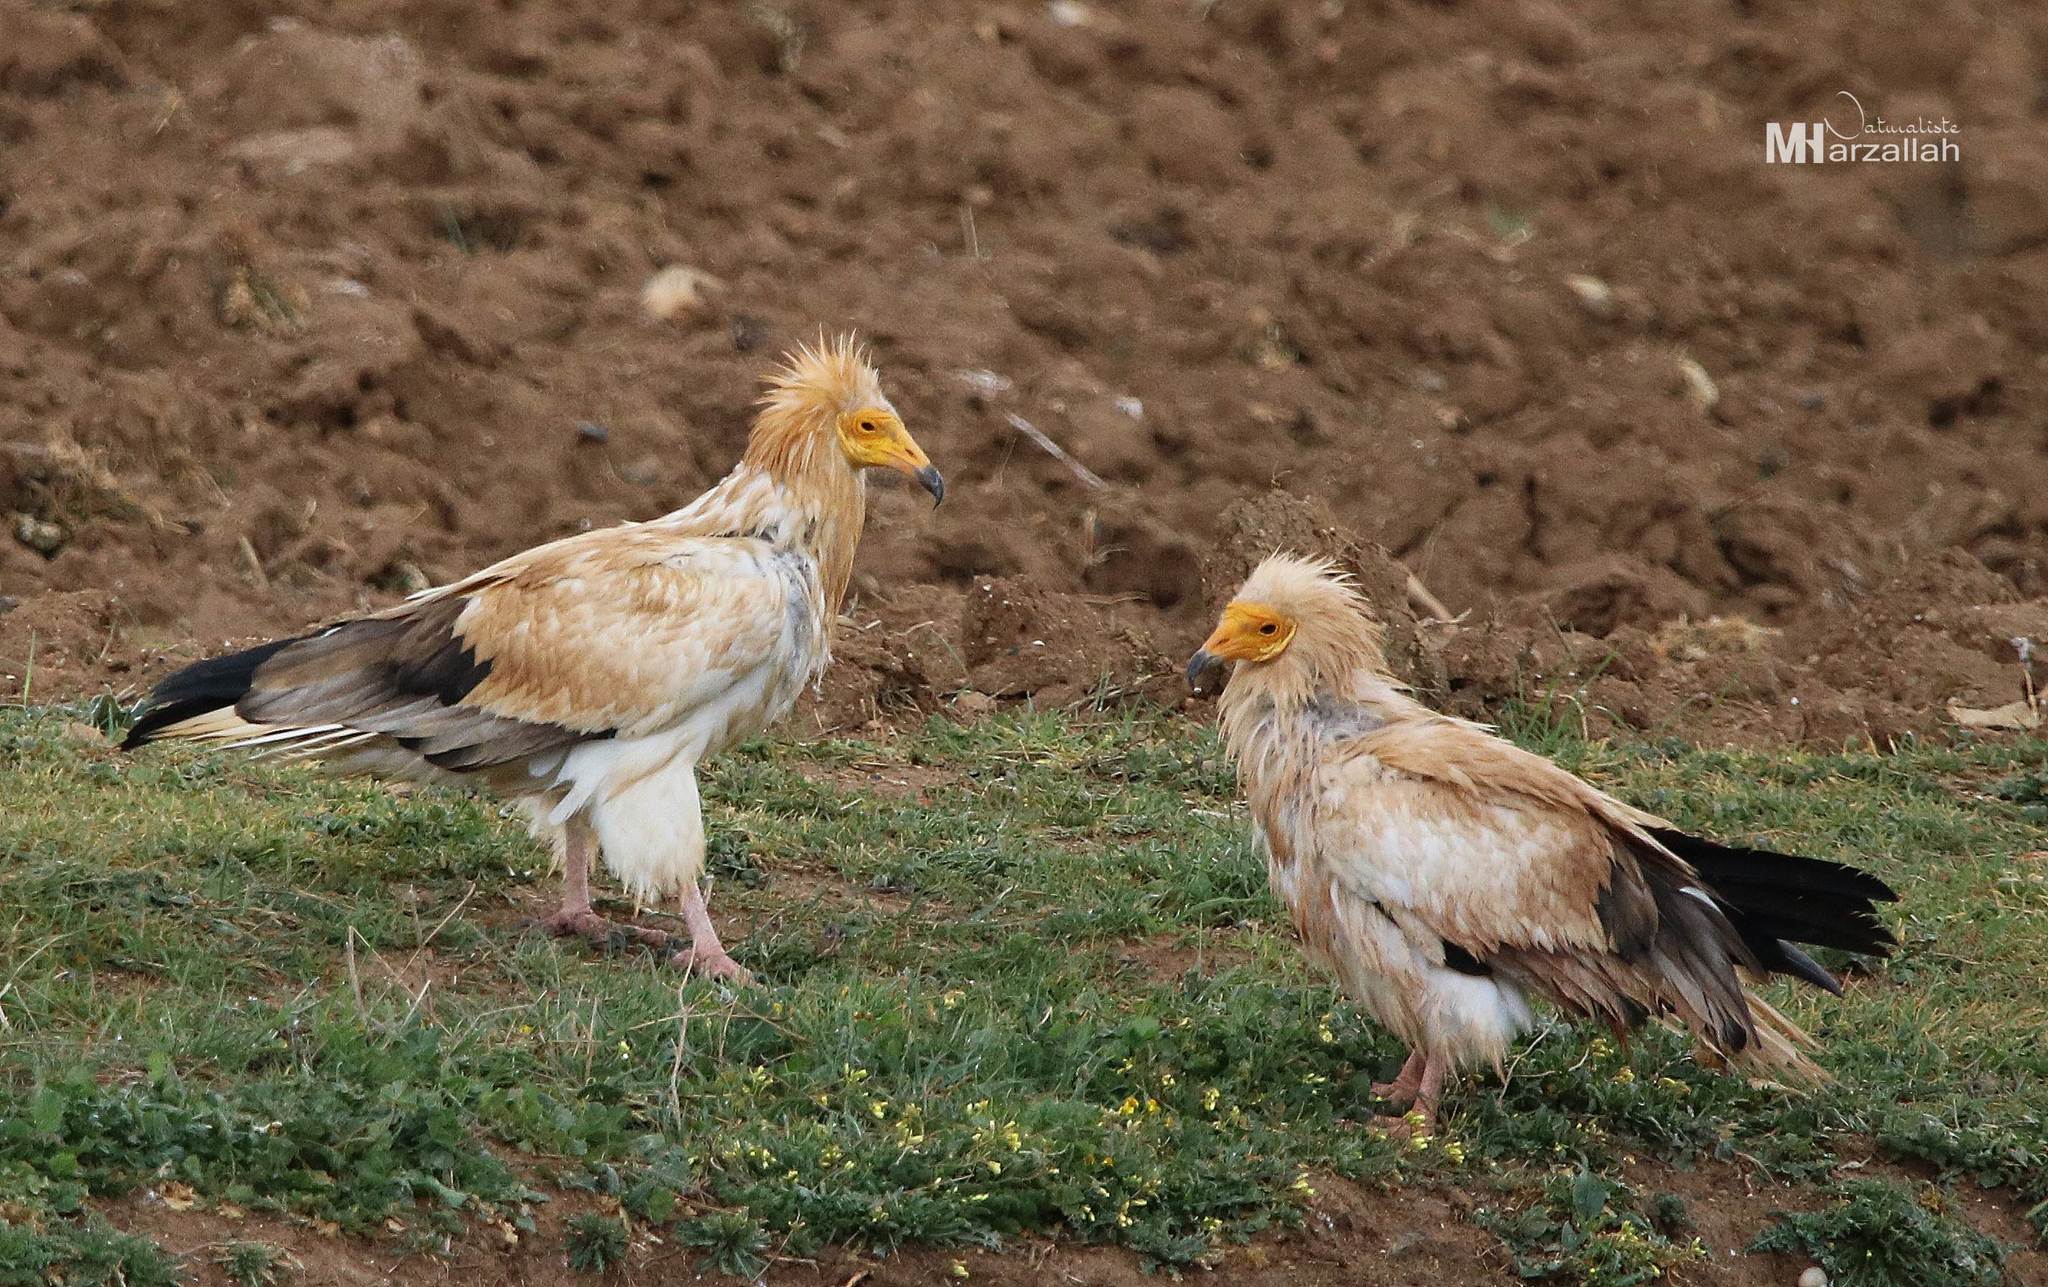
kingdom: Animalia
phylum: Chordata
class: Aves
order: Accipitriformes
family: Accipitridae
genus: Neophron
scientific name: Neophron percnopterus
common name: Egyptian vulture
